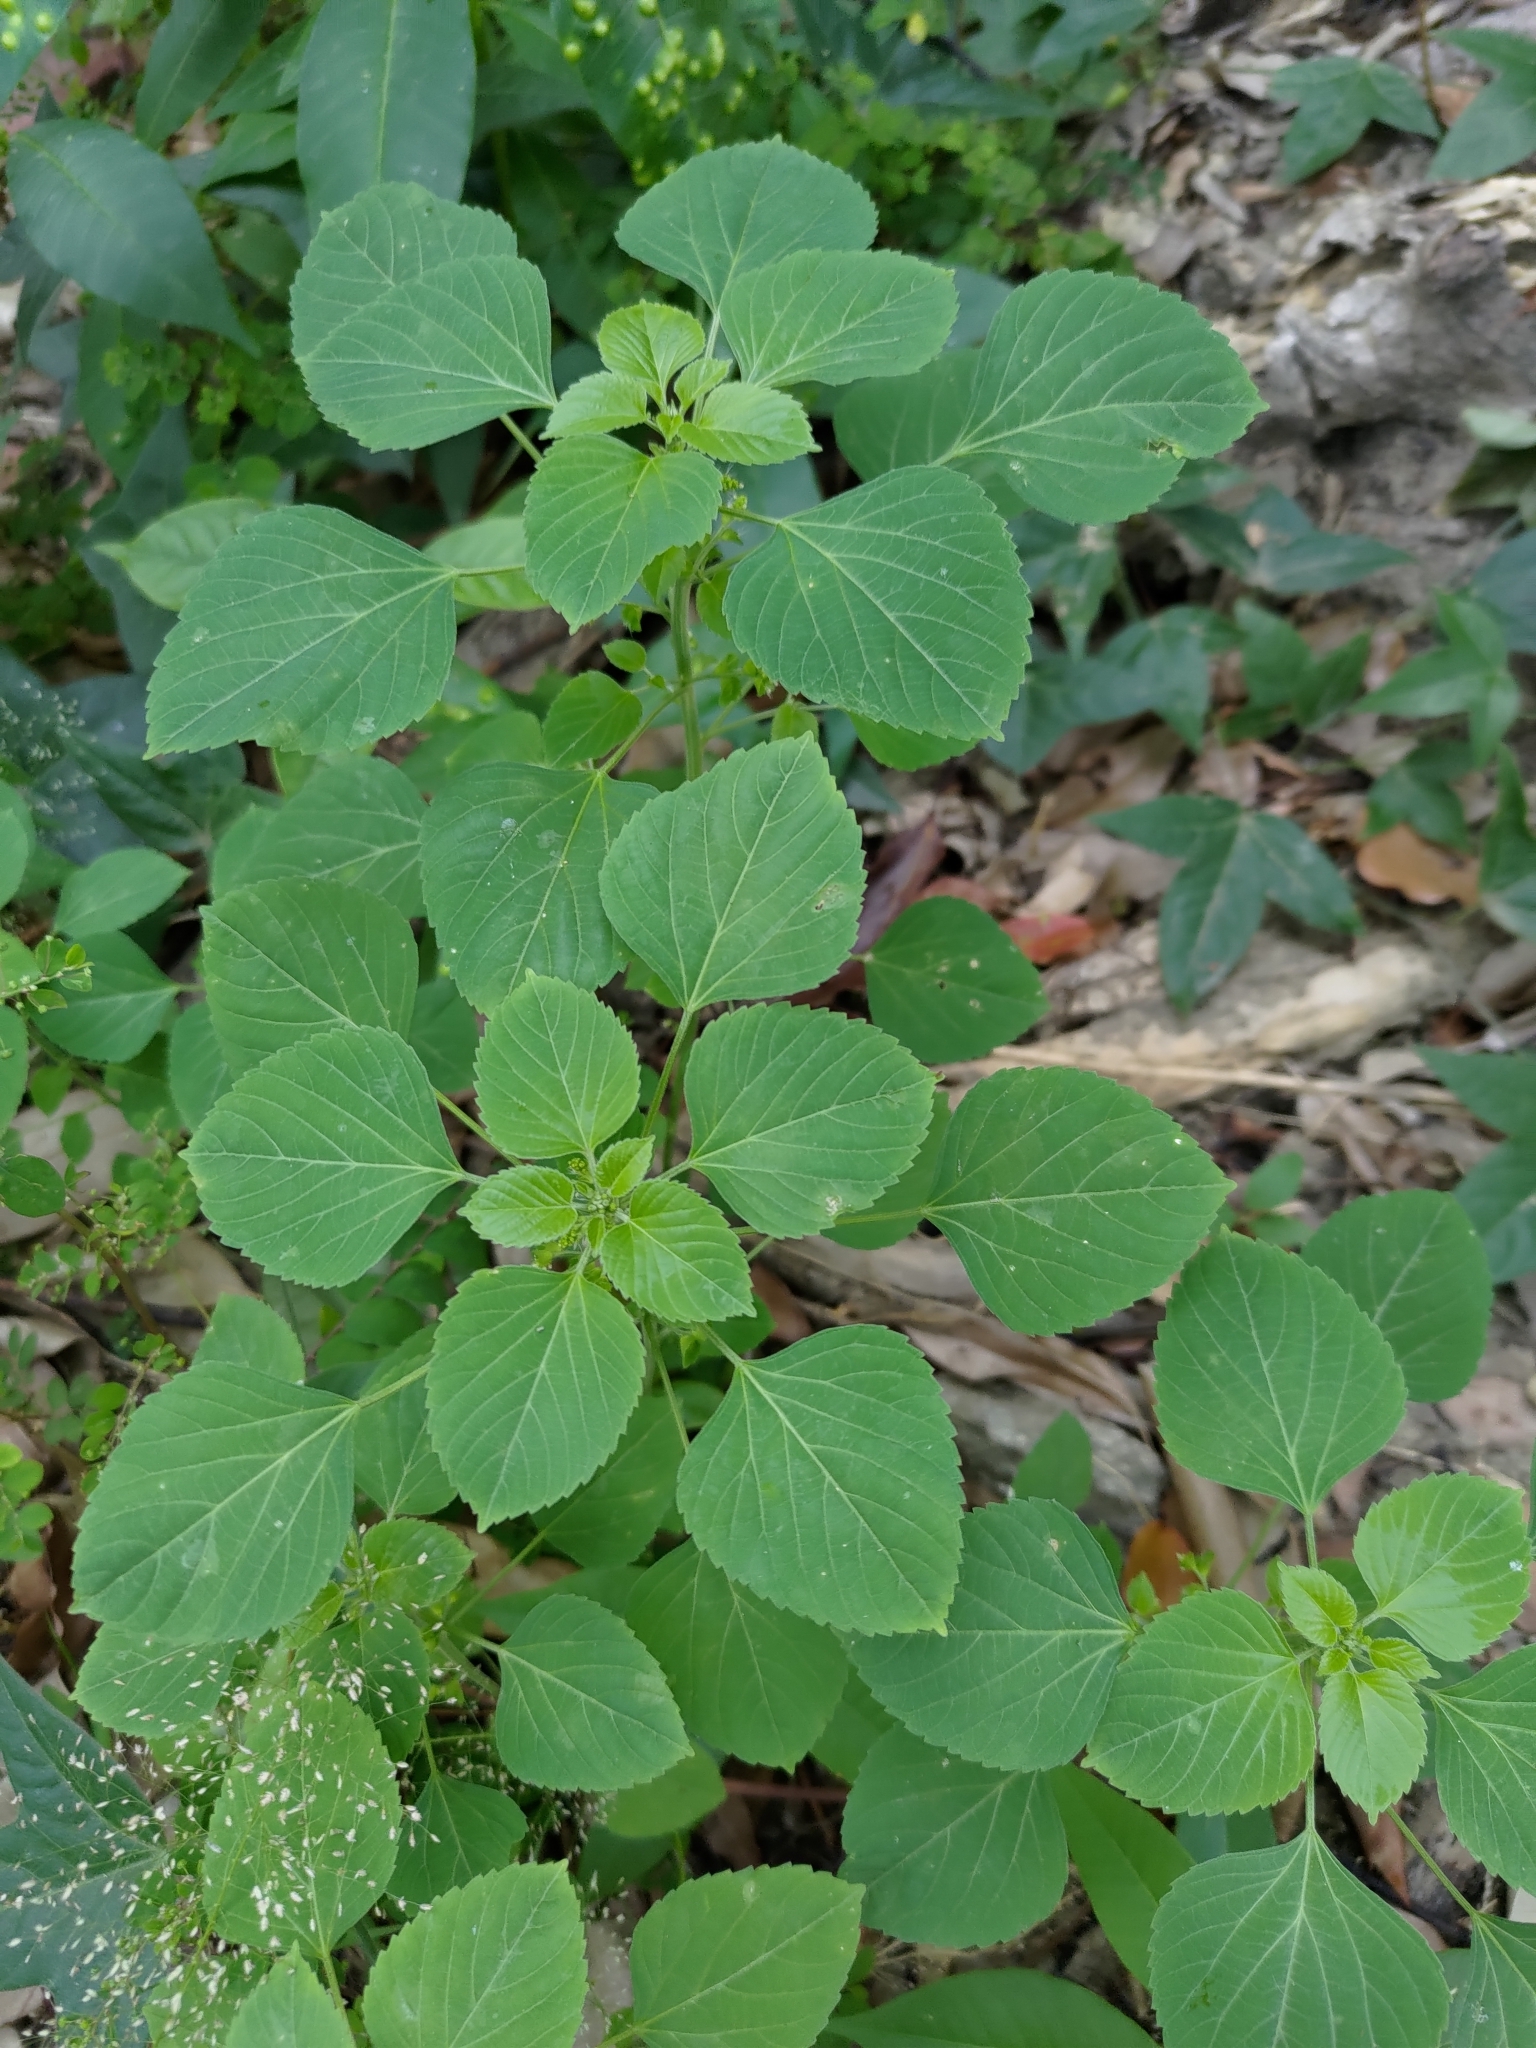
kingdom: Plantae
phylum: Tracheophyta
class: Magnoliopsida
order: Malpighiales
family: Euphorbiaceae
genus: Acalypha
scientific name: Acalypha indica
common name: Indian acalypha
